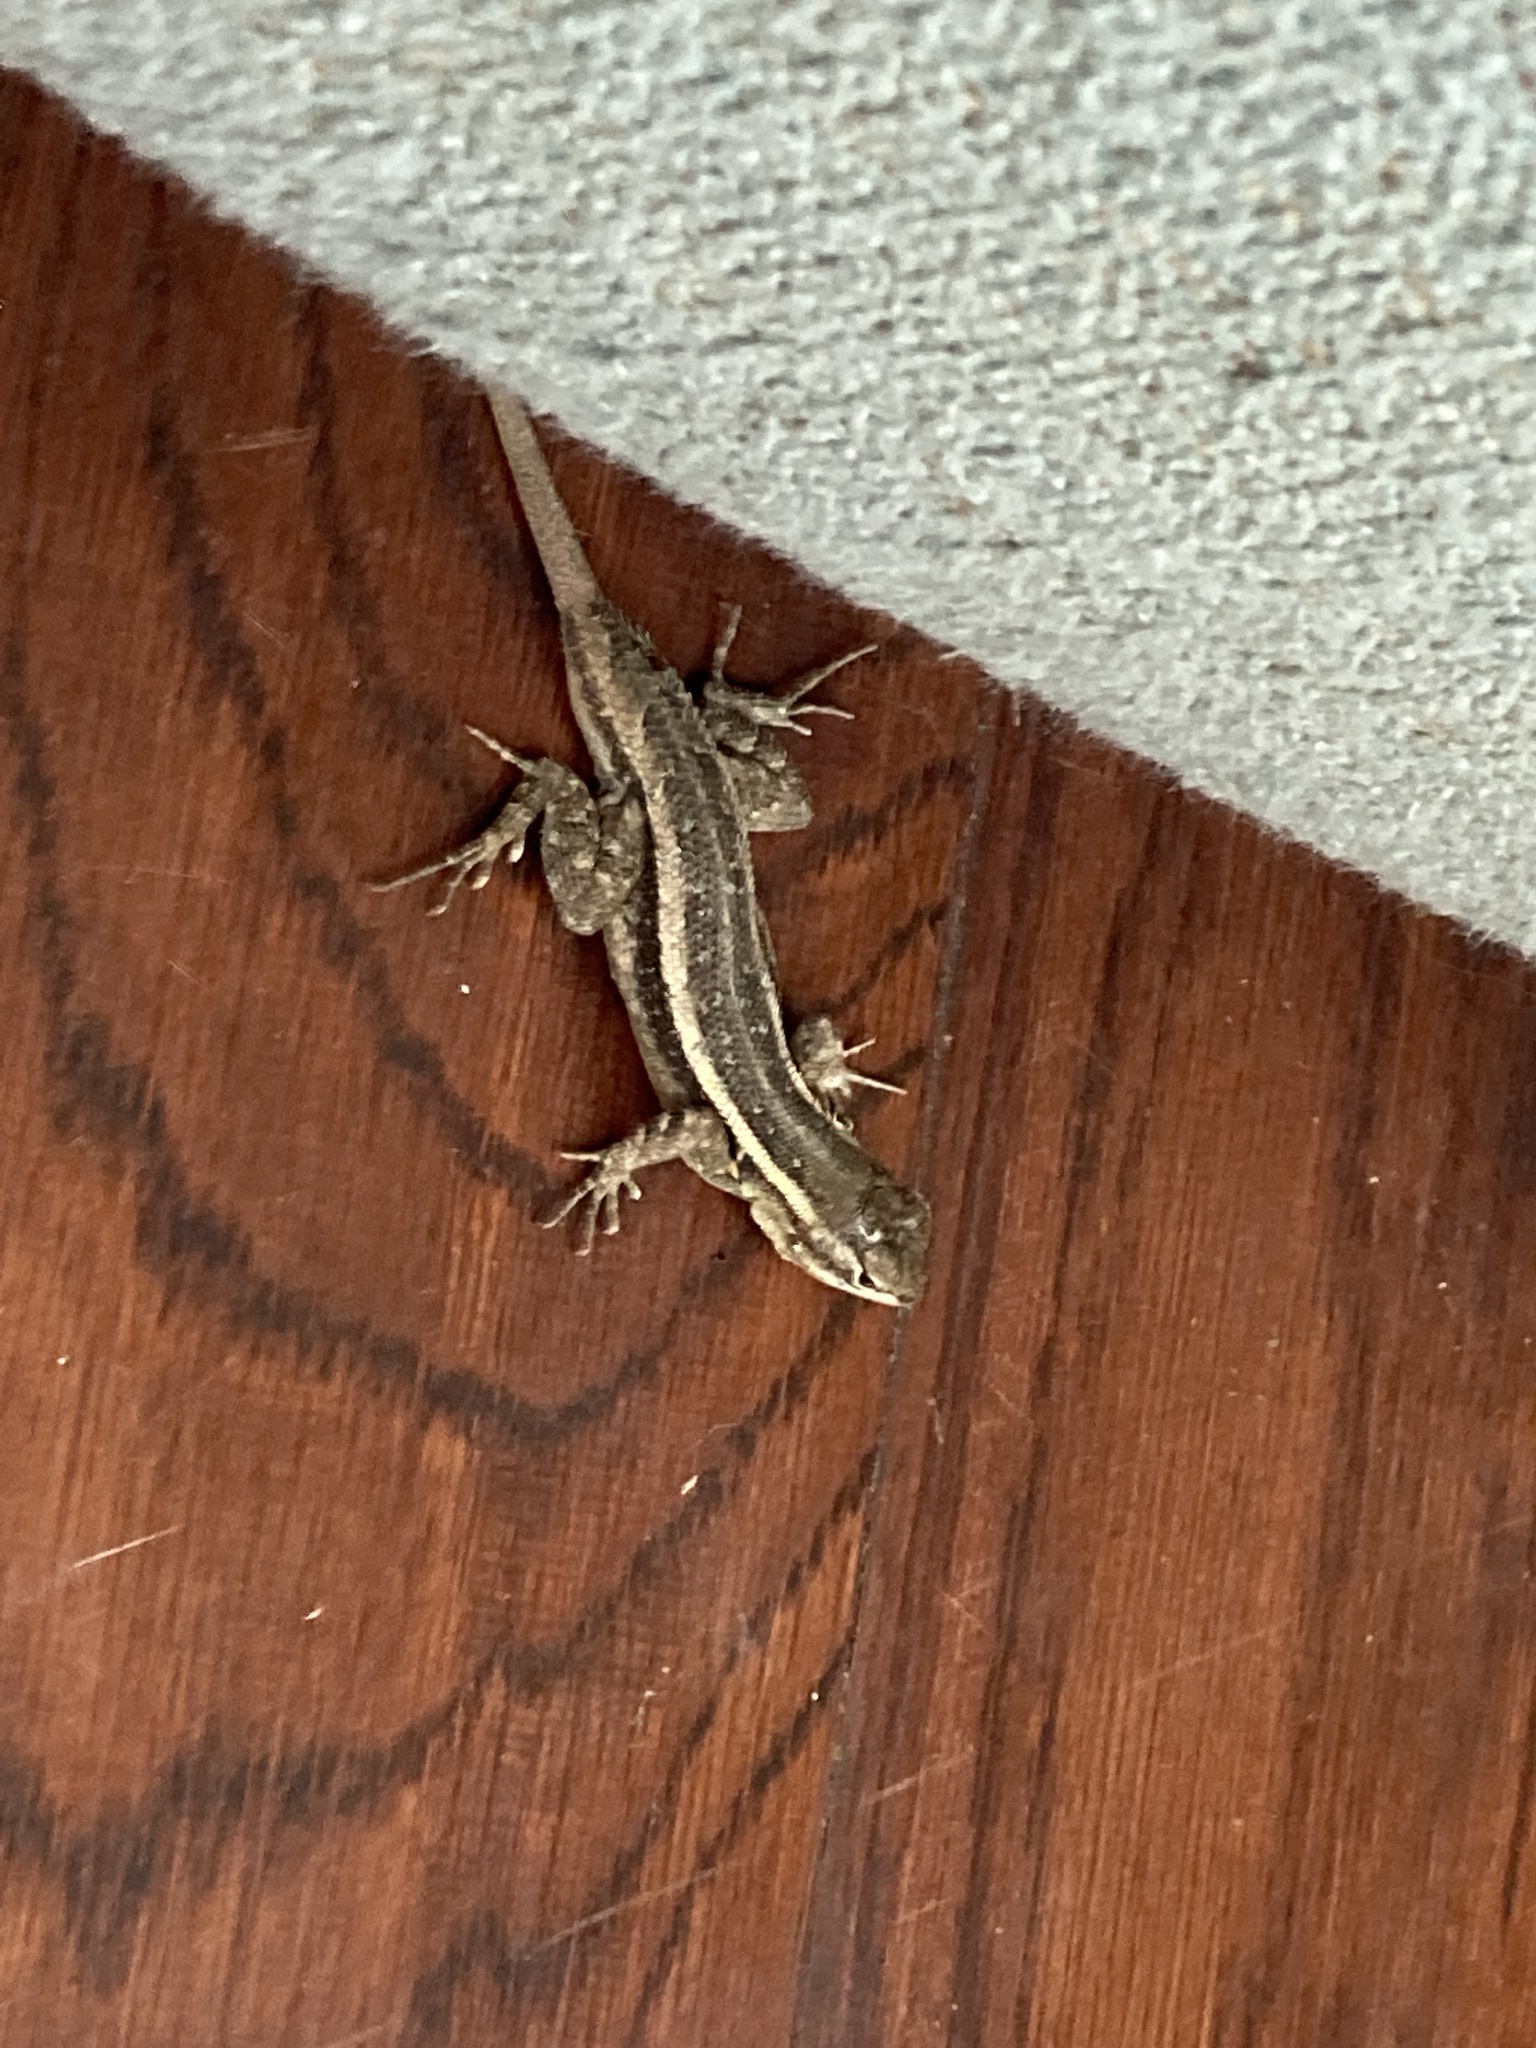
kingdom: Animalia
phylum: Chordata
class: Squamata
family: Phrynosomatidae
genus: Sceloporus
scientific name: Sceloporus variabilis
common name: Rosebelly lizard
